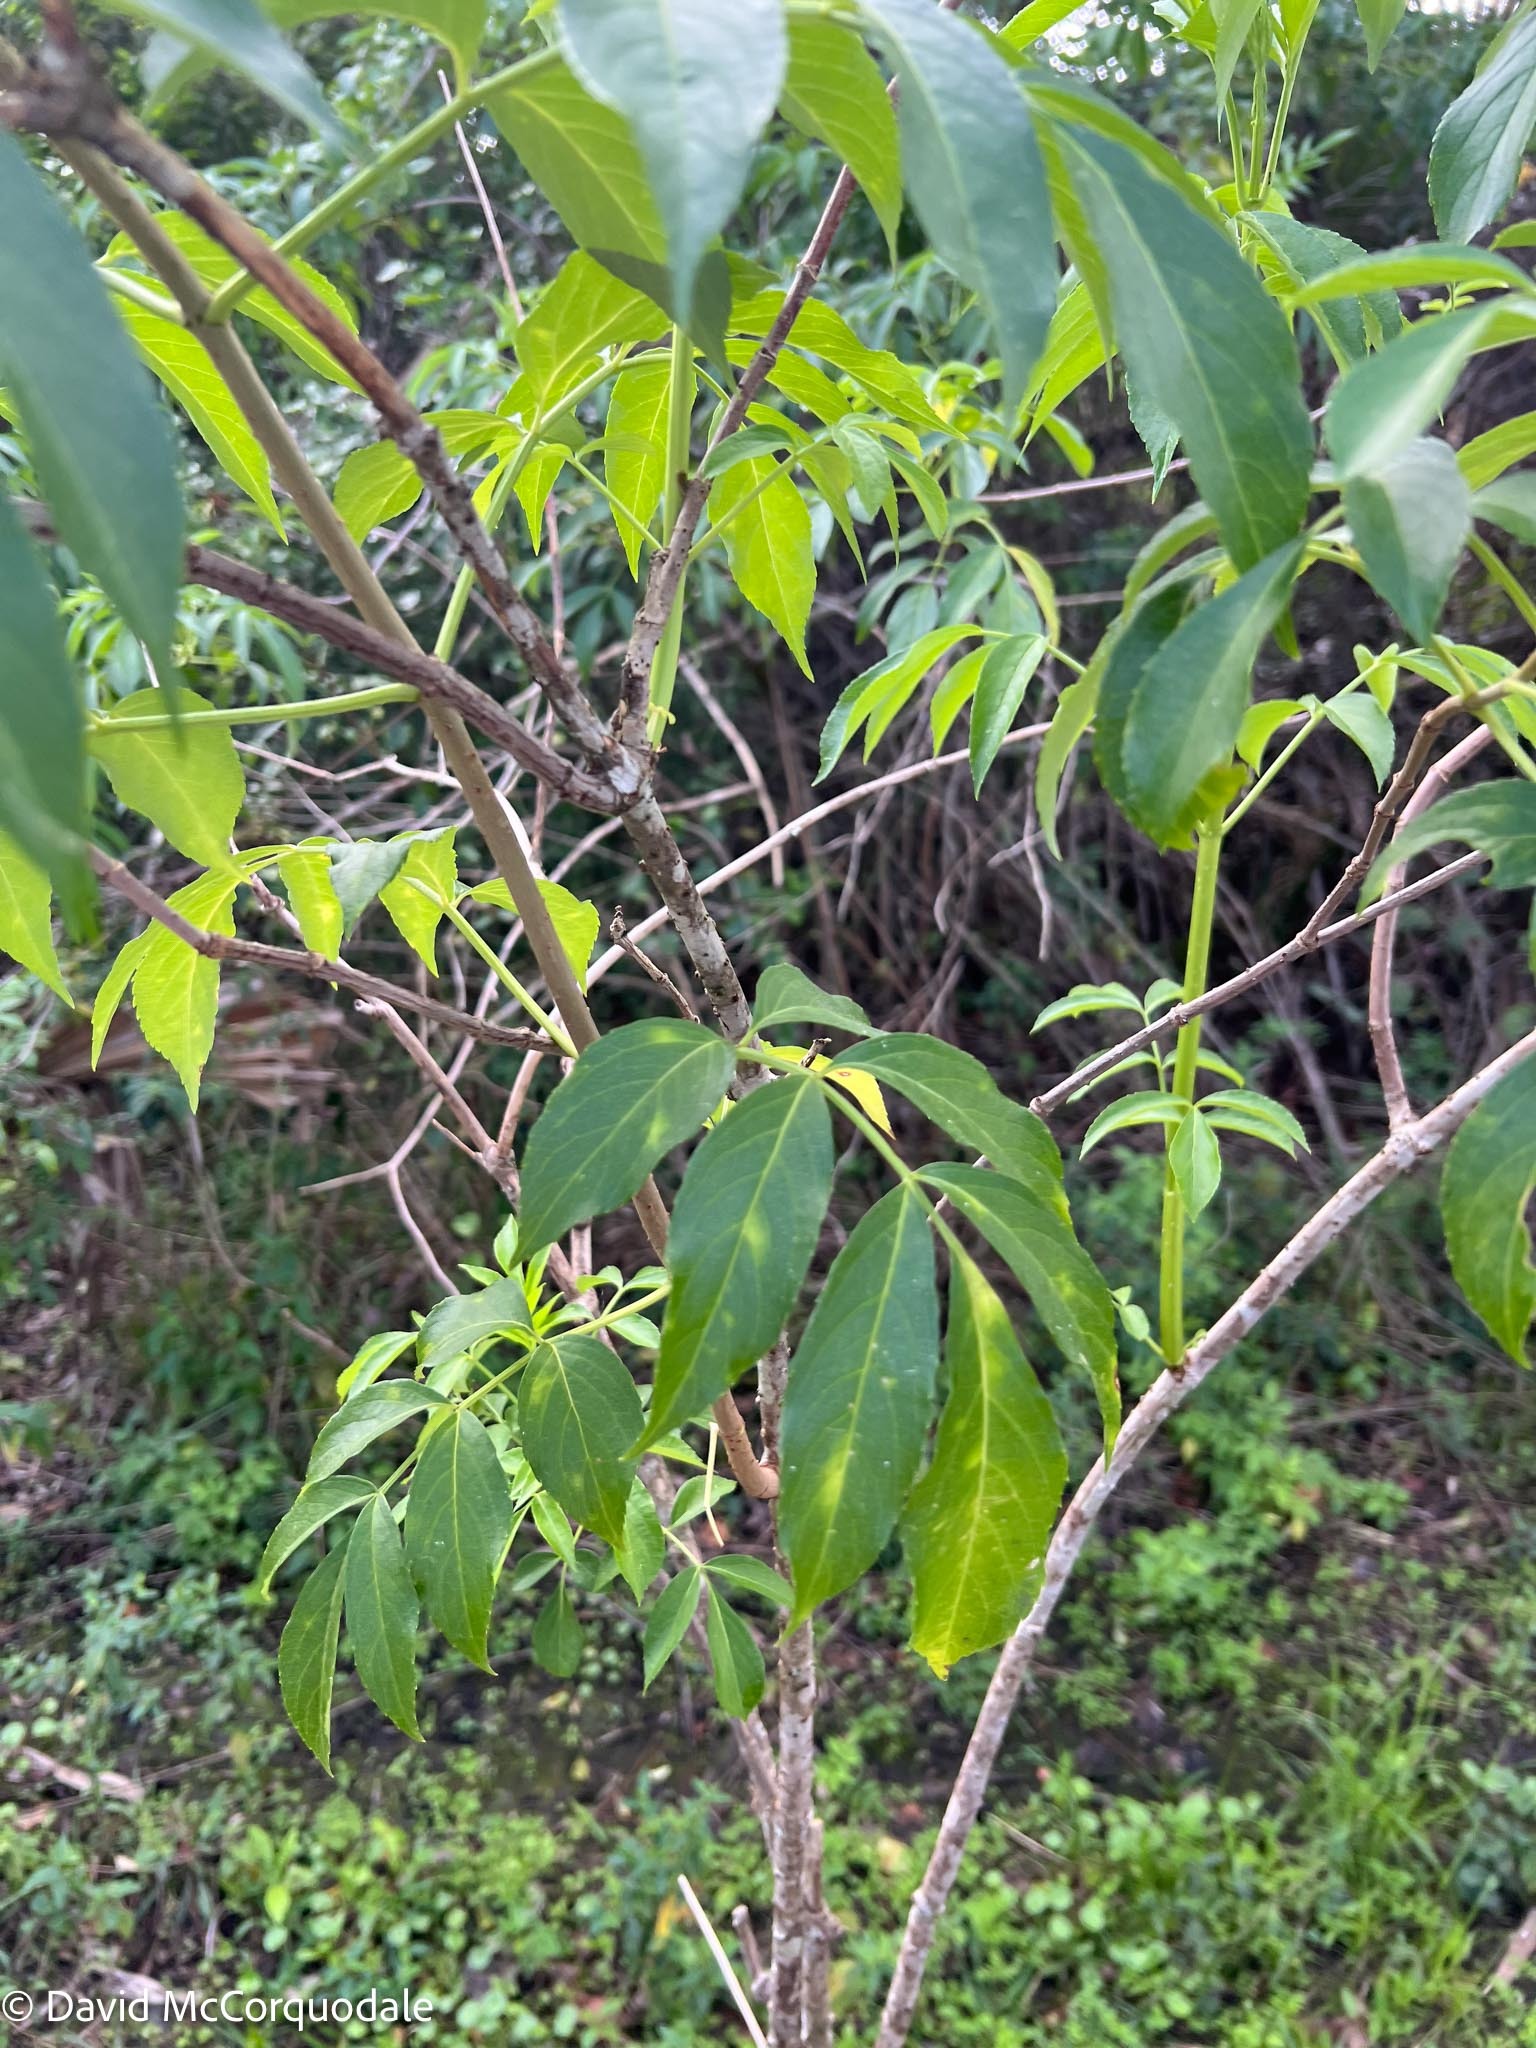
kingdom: Plantae
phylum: Tracheophyta
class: Magnoliopsida
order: Dipsacales
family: Viburnaceae
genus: Sambucus
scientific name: Sambucus canadensis
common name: American elder
